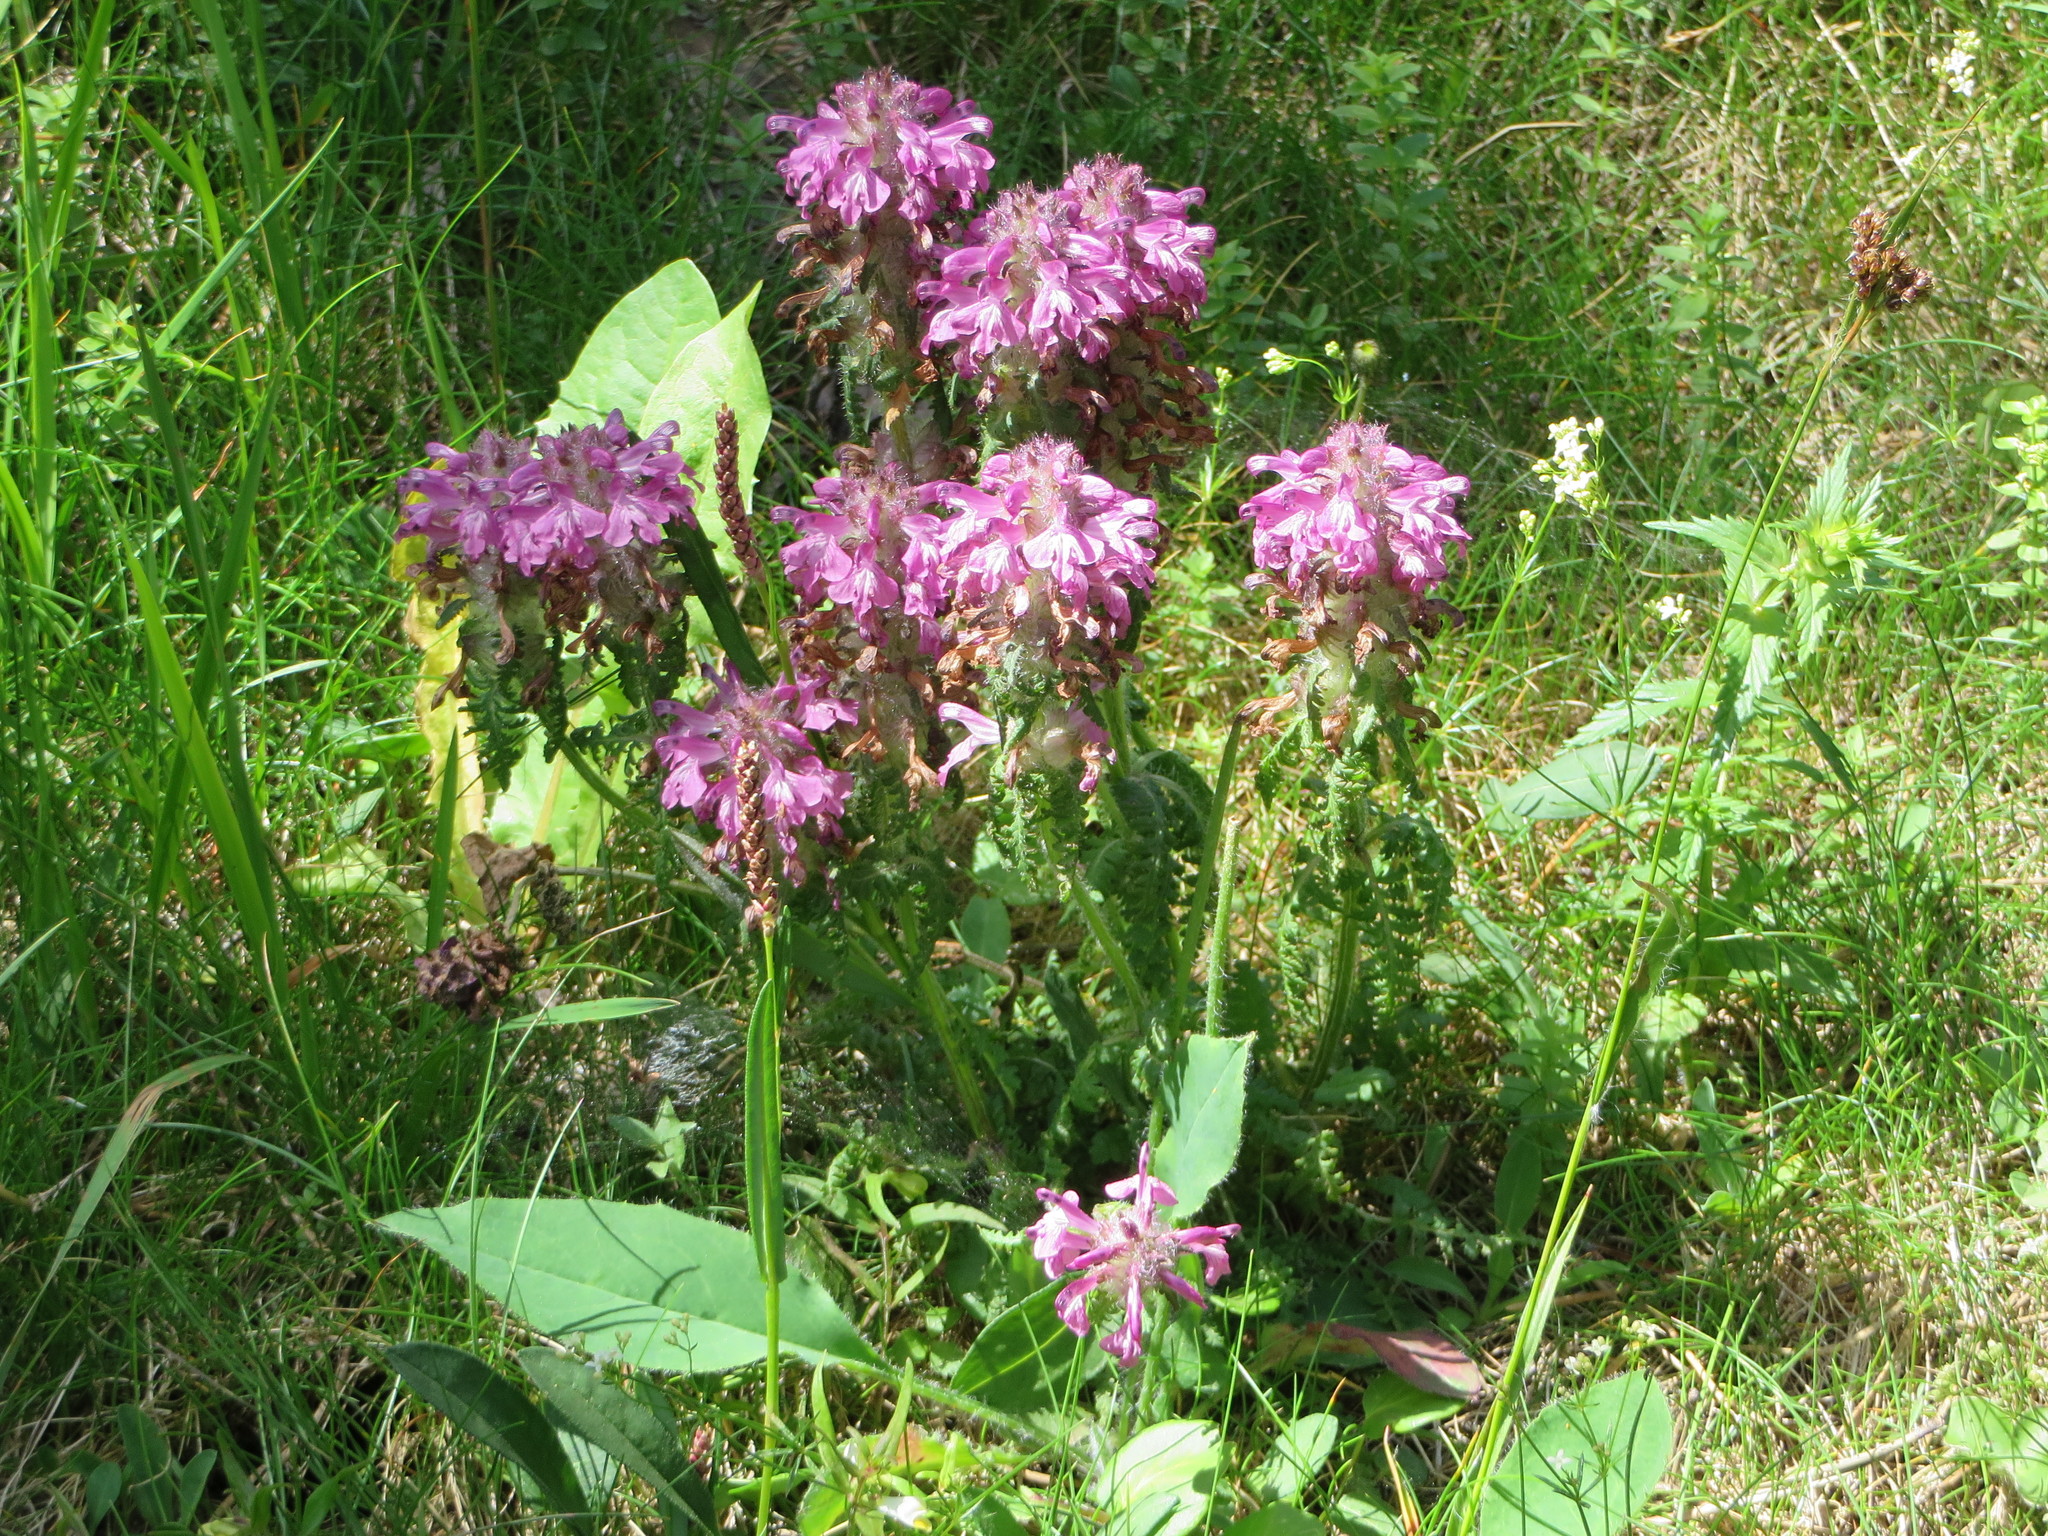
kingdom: Plantae
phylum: Tracheophyta
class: Magnoliopsida
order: Lamiales
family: Orobanchaceae
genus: Pedicularis
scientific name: Pedicularis verticillata
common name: Whorled lousewort
